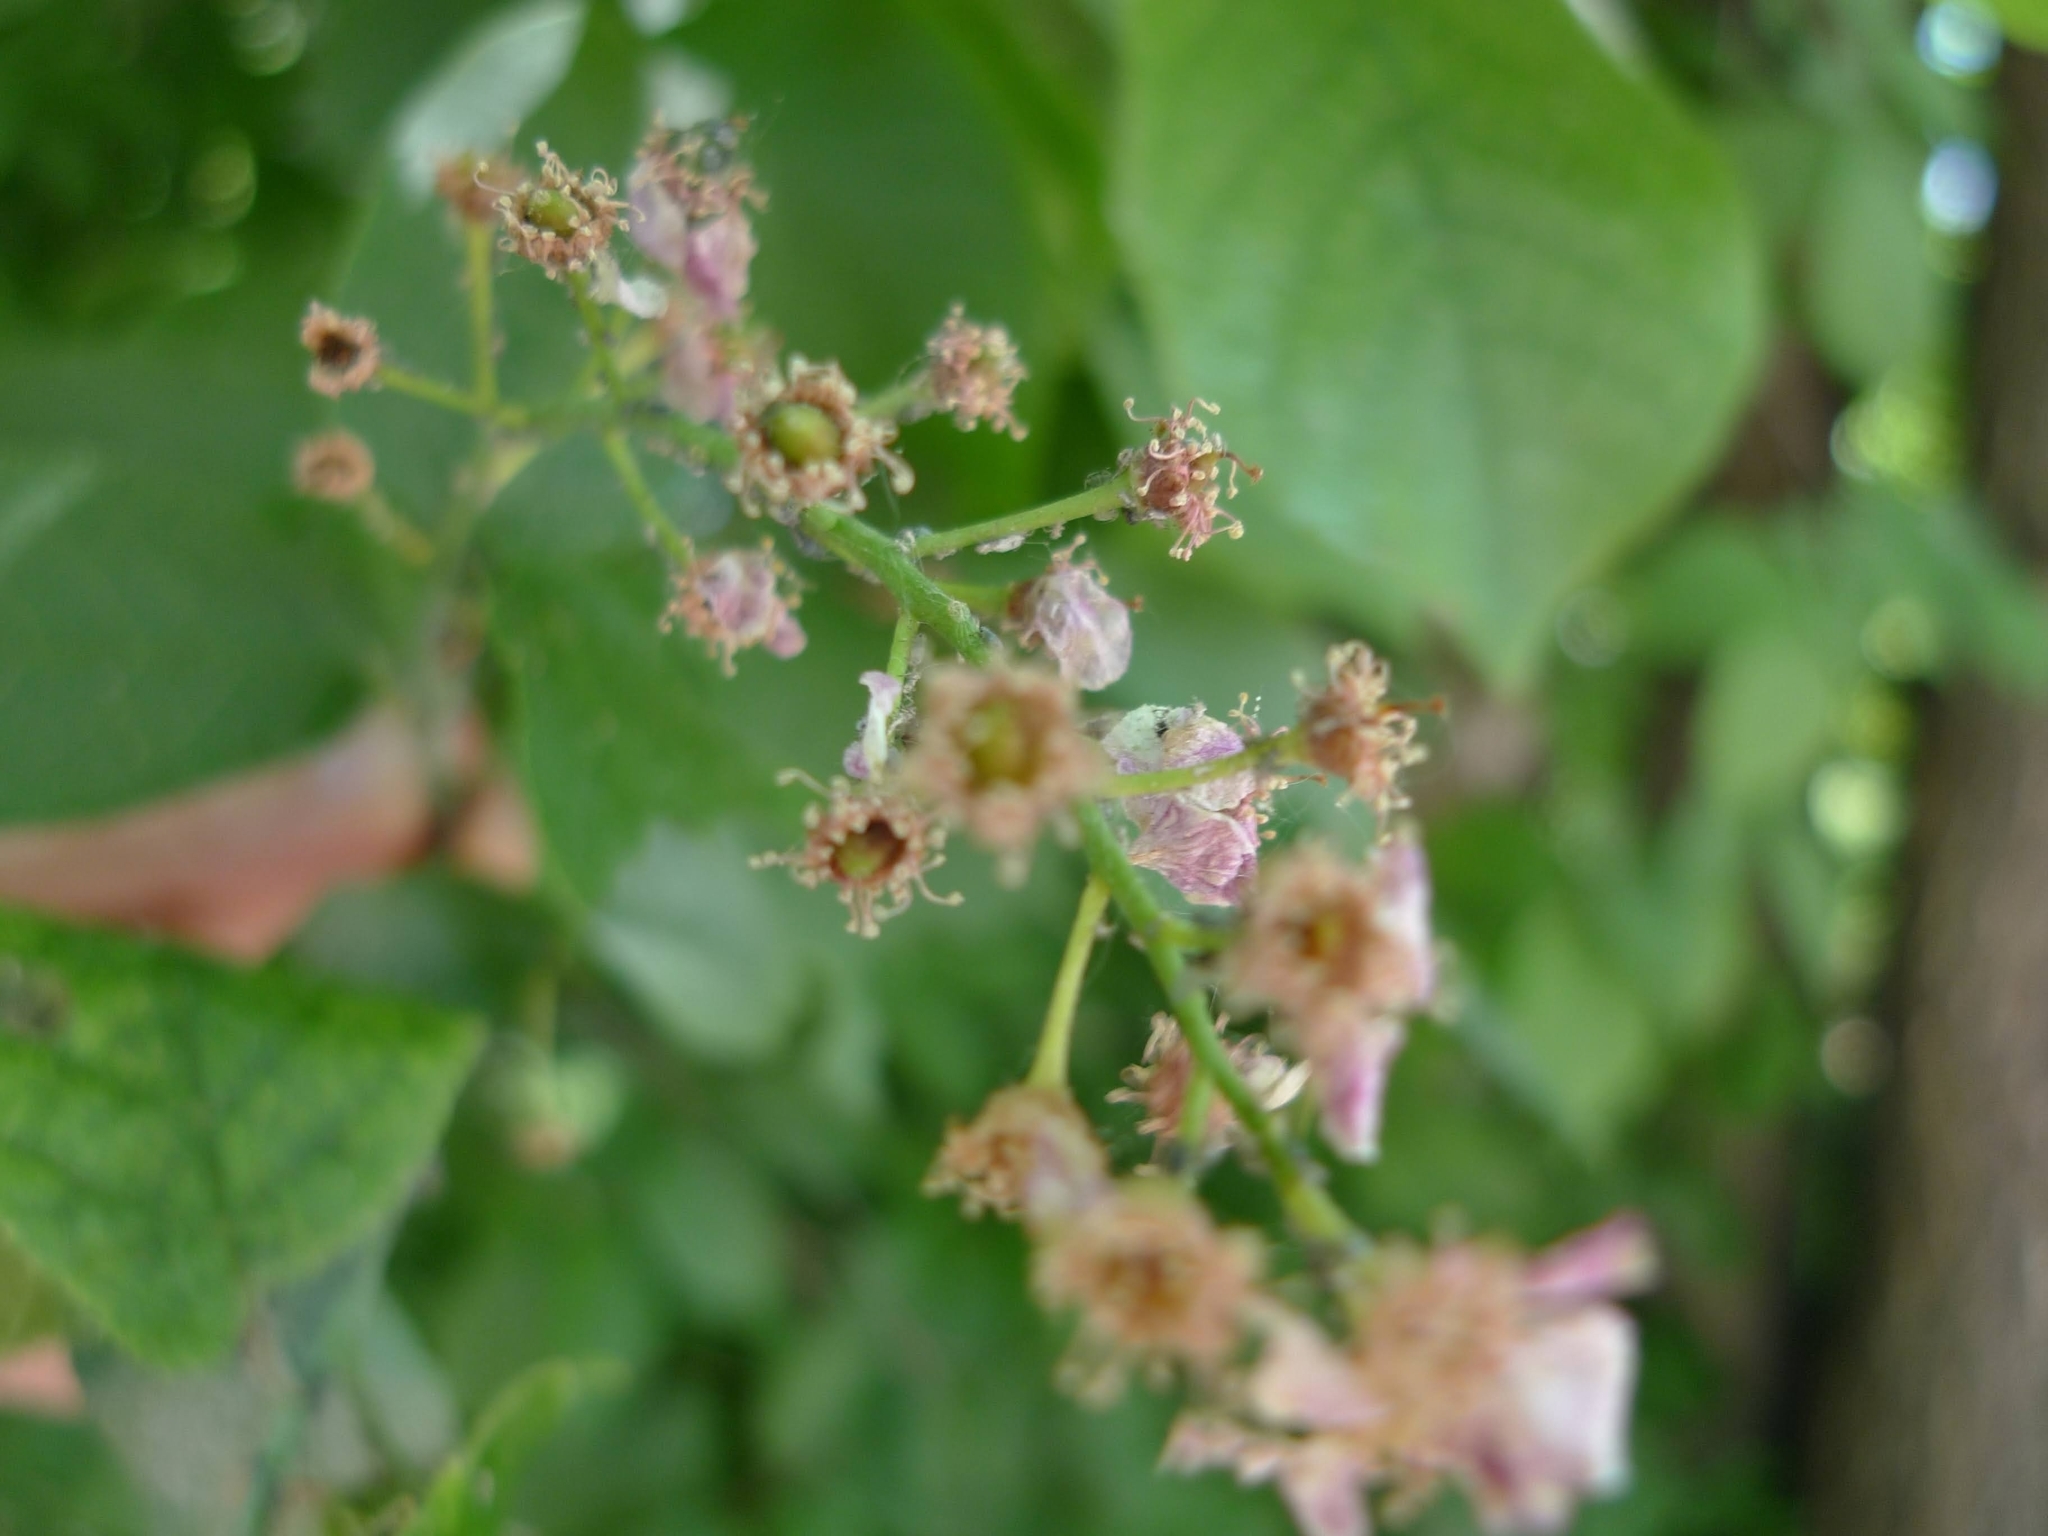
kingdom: Plantae
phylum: Tracheophyta
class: Magnoliopsida
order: Rosales
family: Rosaceae
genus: Prunus
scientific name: Prunus padus
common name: Bird cherry
